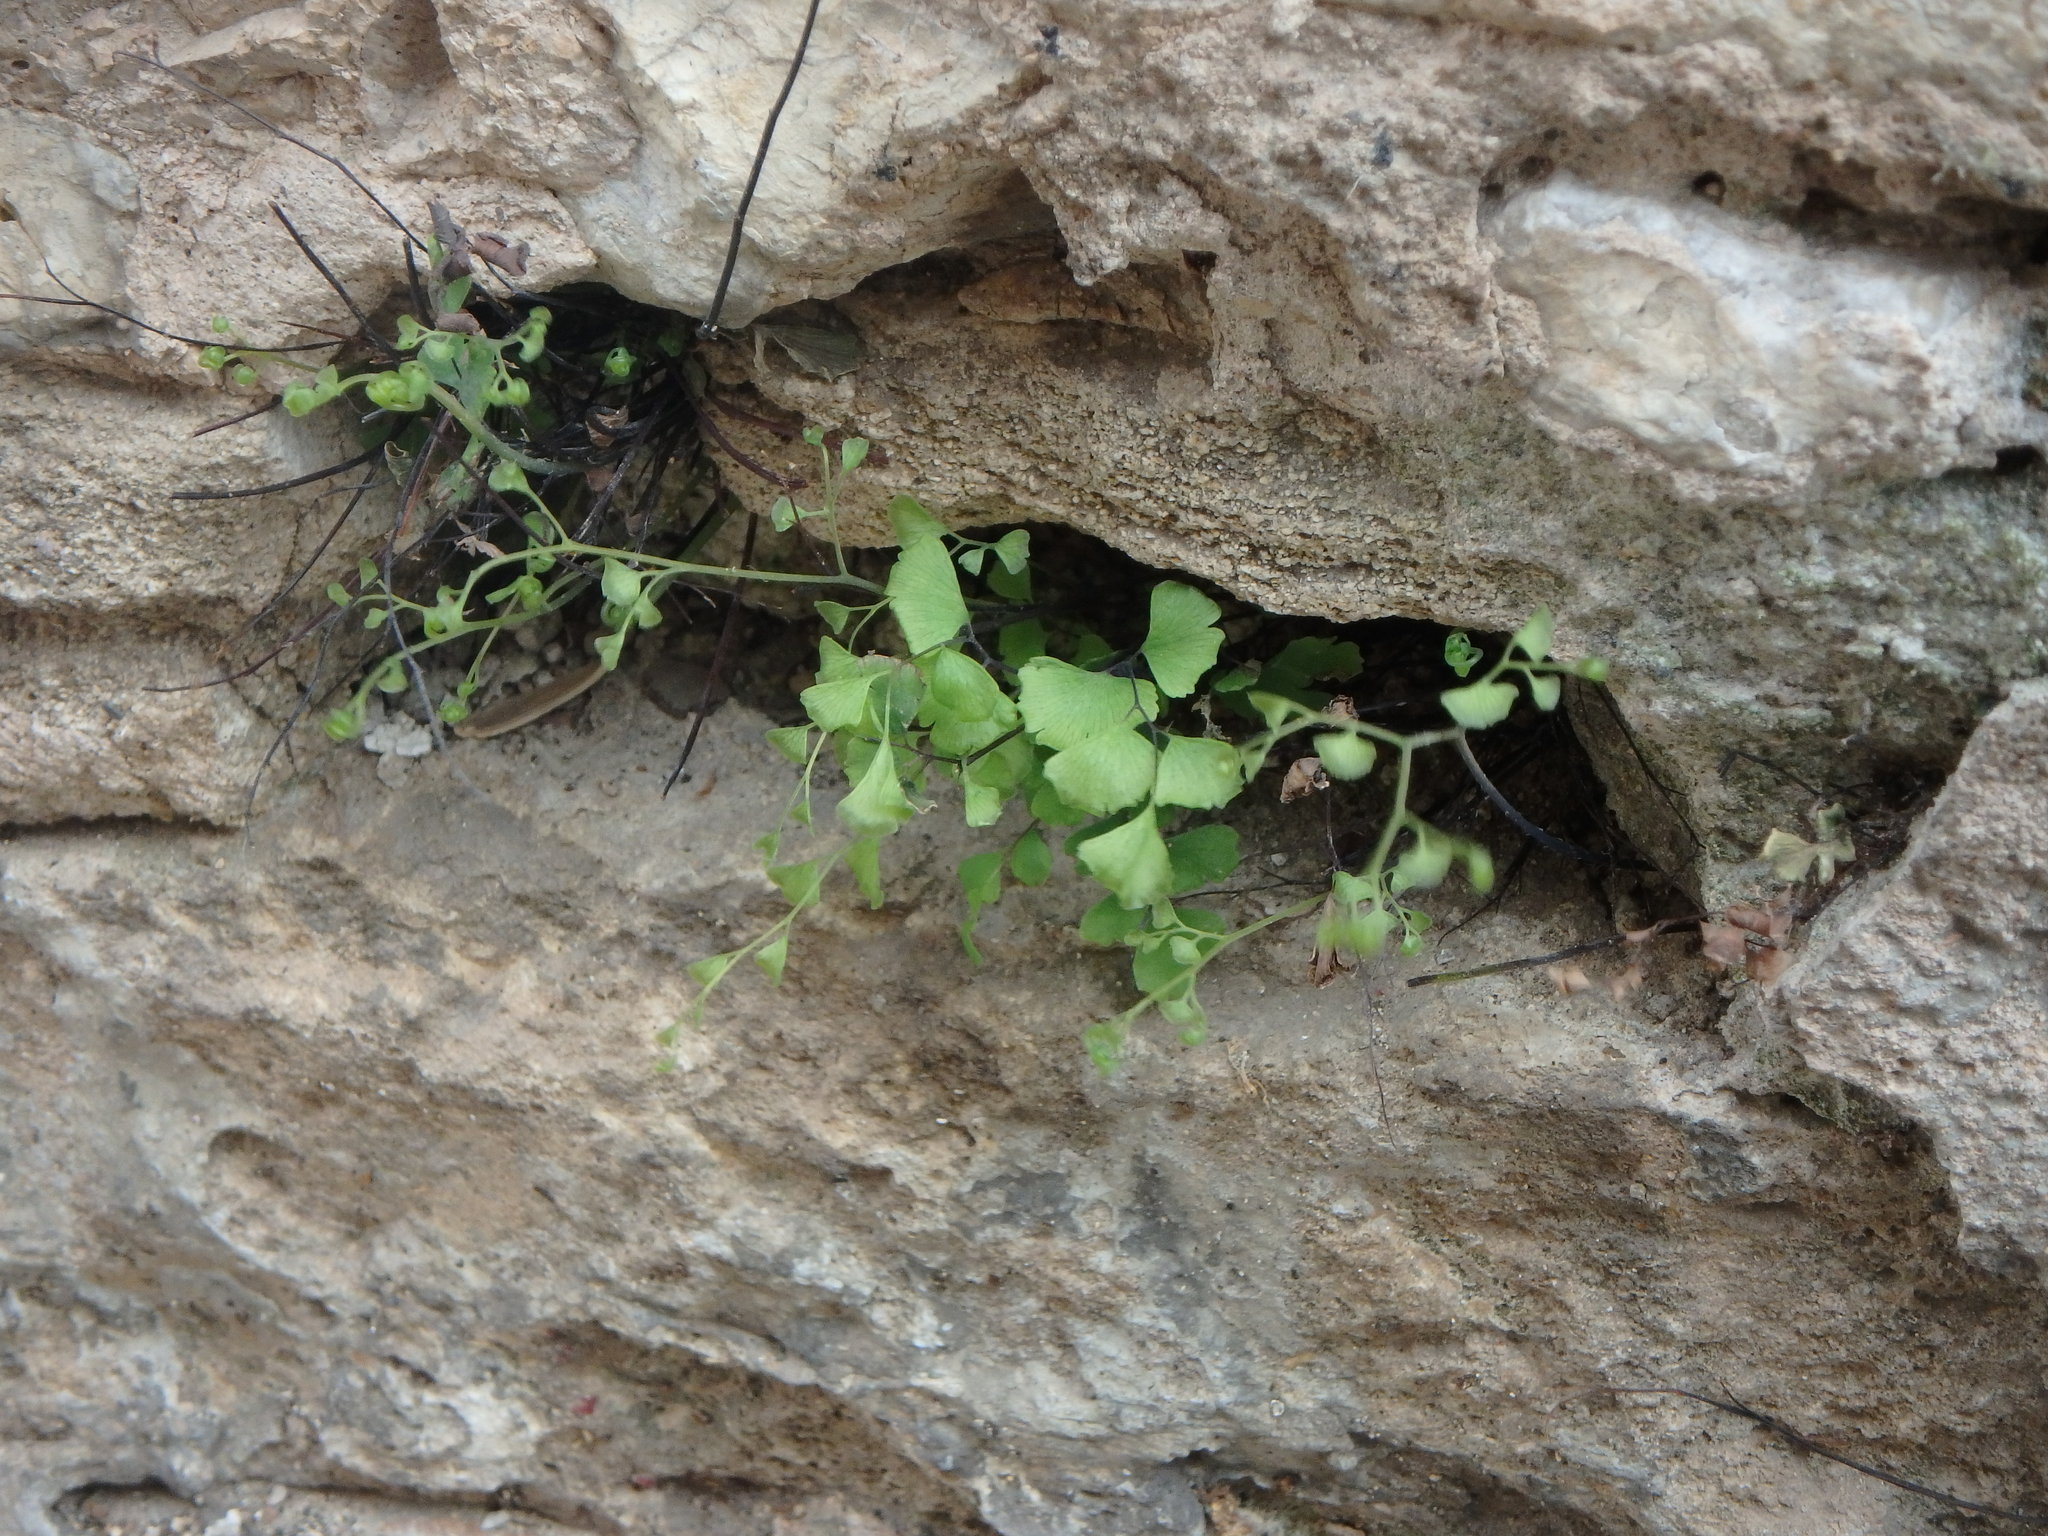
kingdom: Plantae
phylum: Tracheophyta
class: Polypodiopsida
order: Polypodiales
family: Pteridaceae
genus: Adiantum
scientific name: Adiantum capillus-veneris
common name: Maidenhair fern
